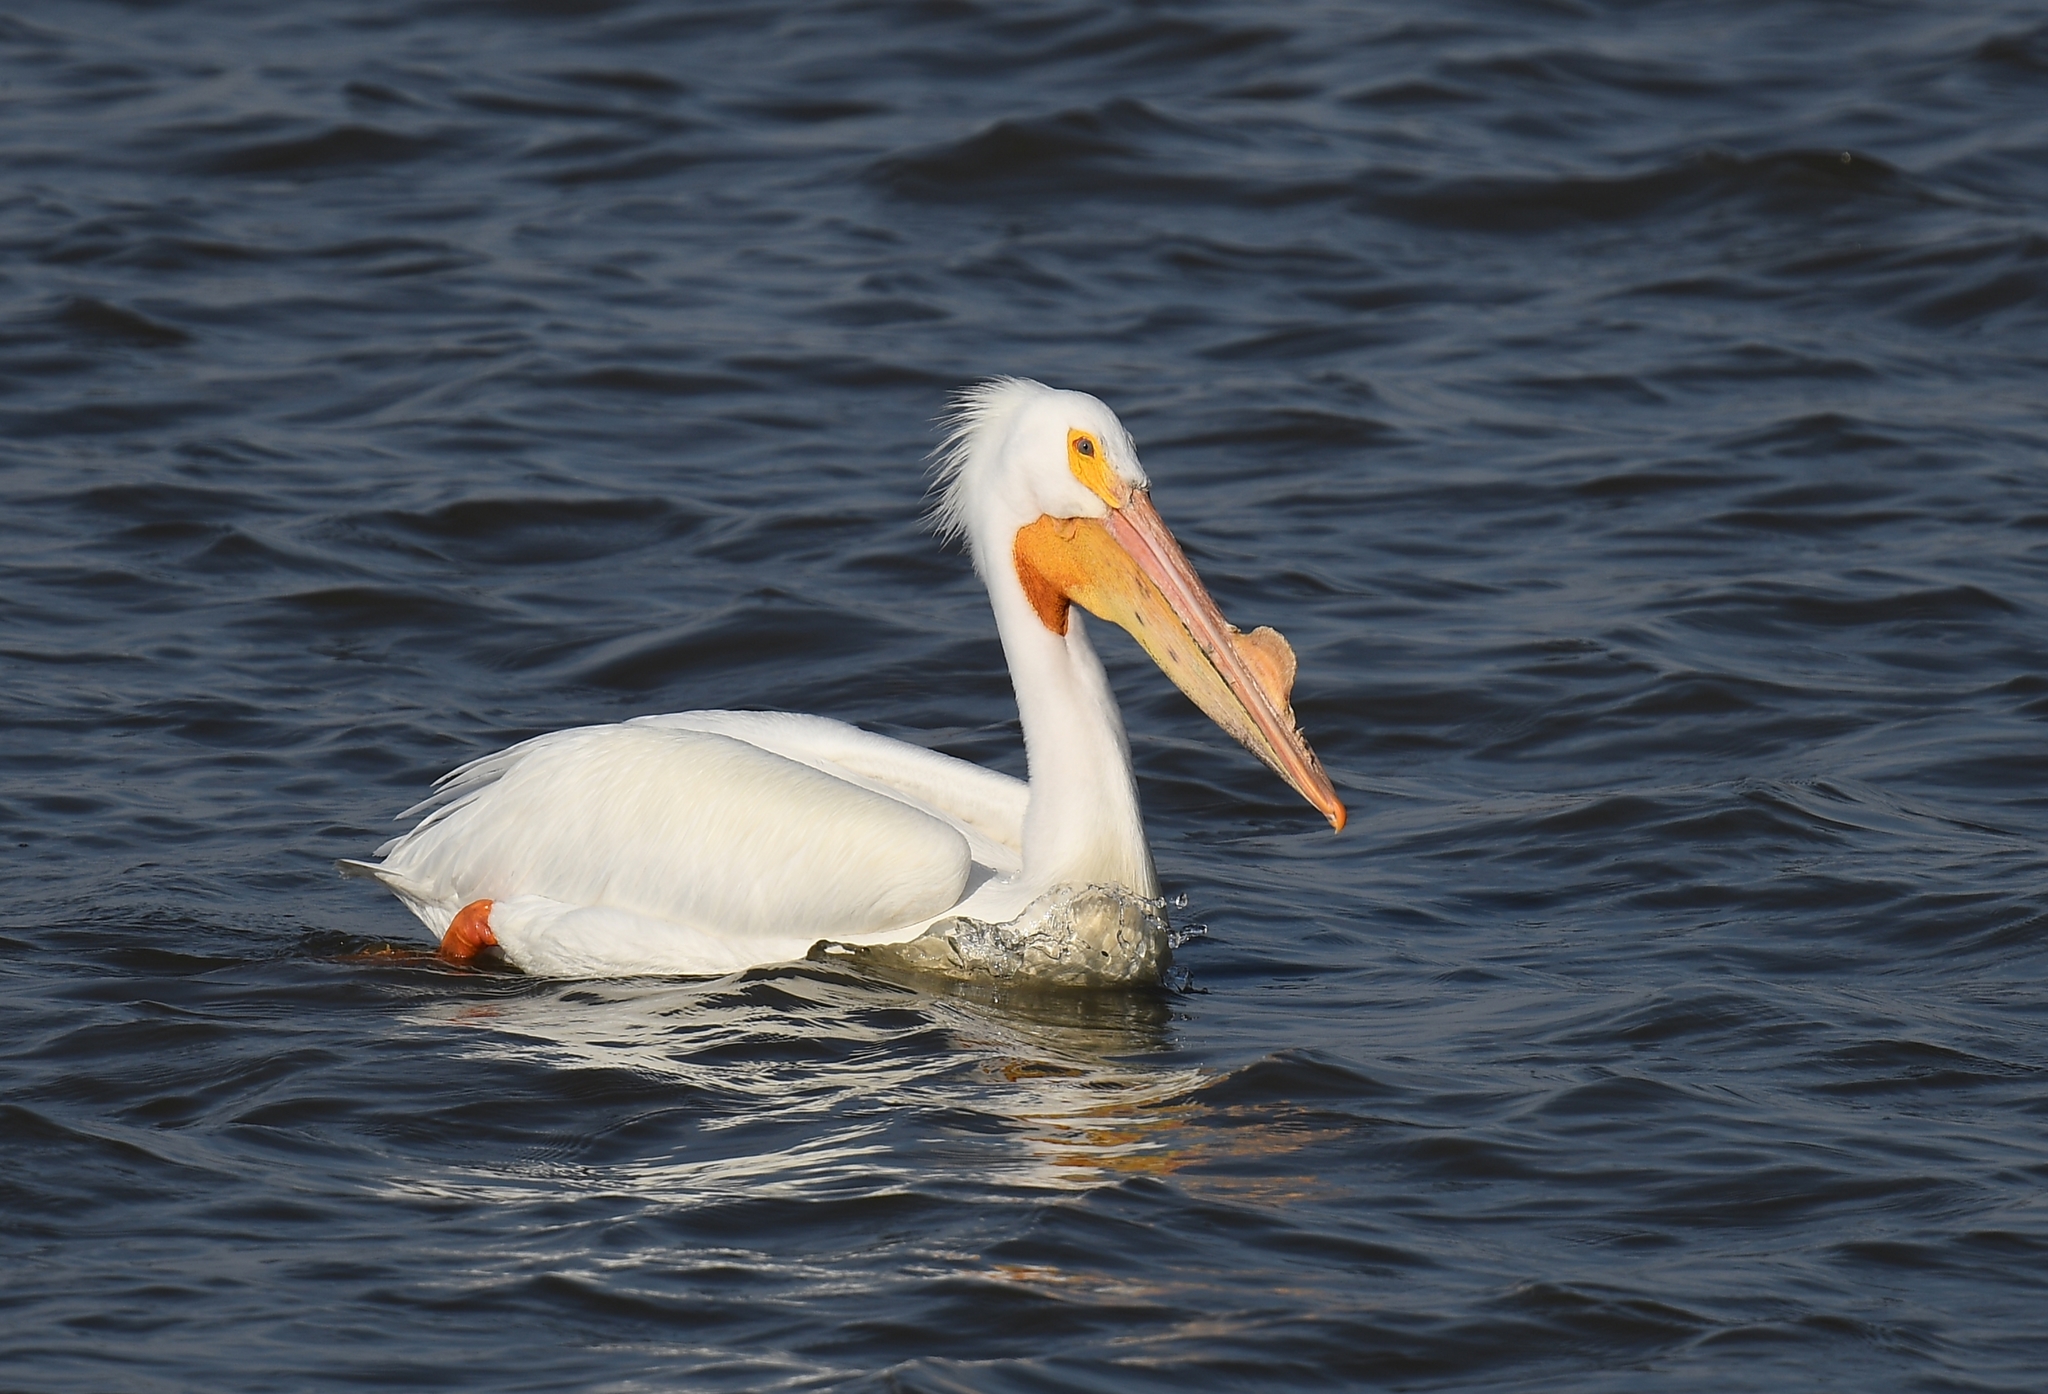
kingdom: Animalia
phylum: Chordata
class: Aves
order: Pelecaniformes
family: Pelecanidae
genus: Pelecanus
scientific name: Pelecanus erythrorhynchos
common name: American white pelican
